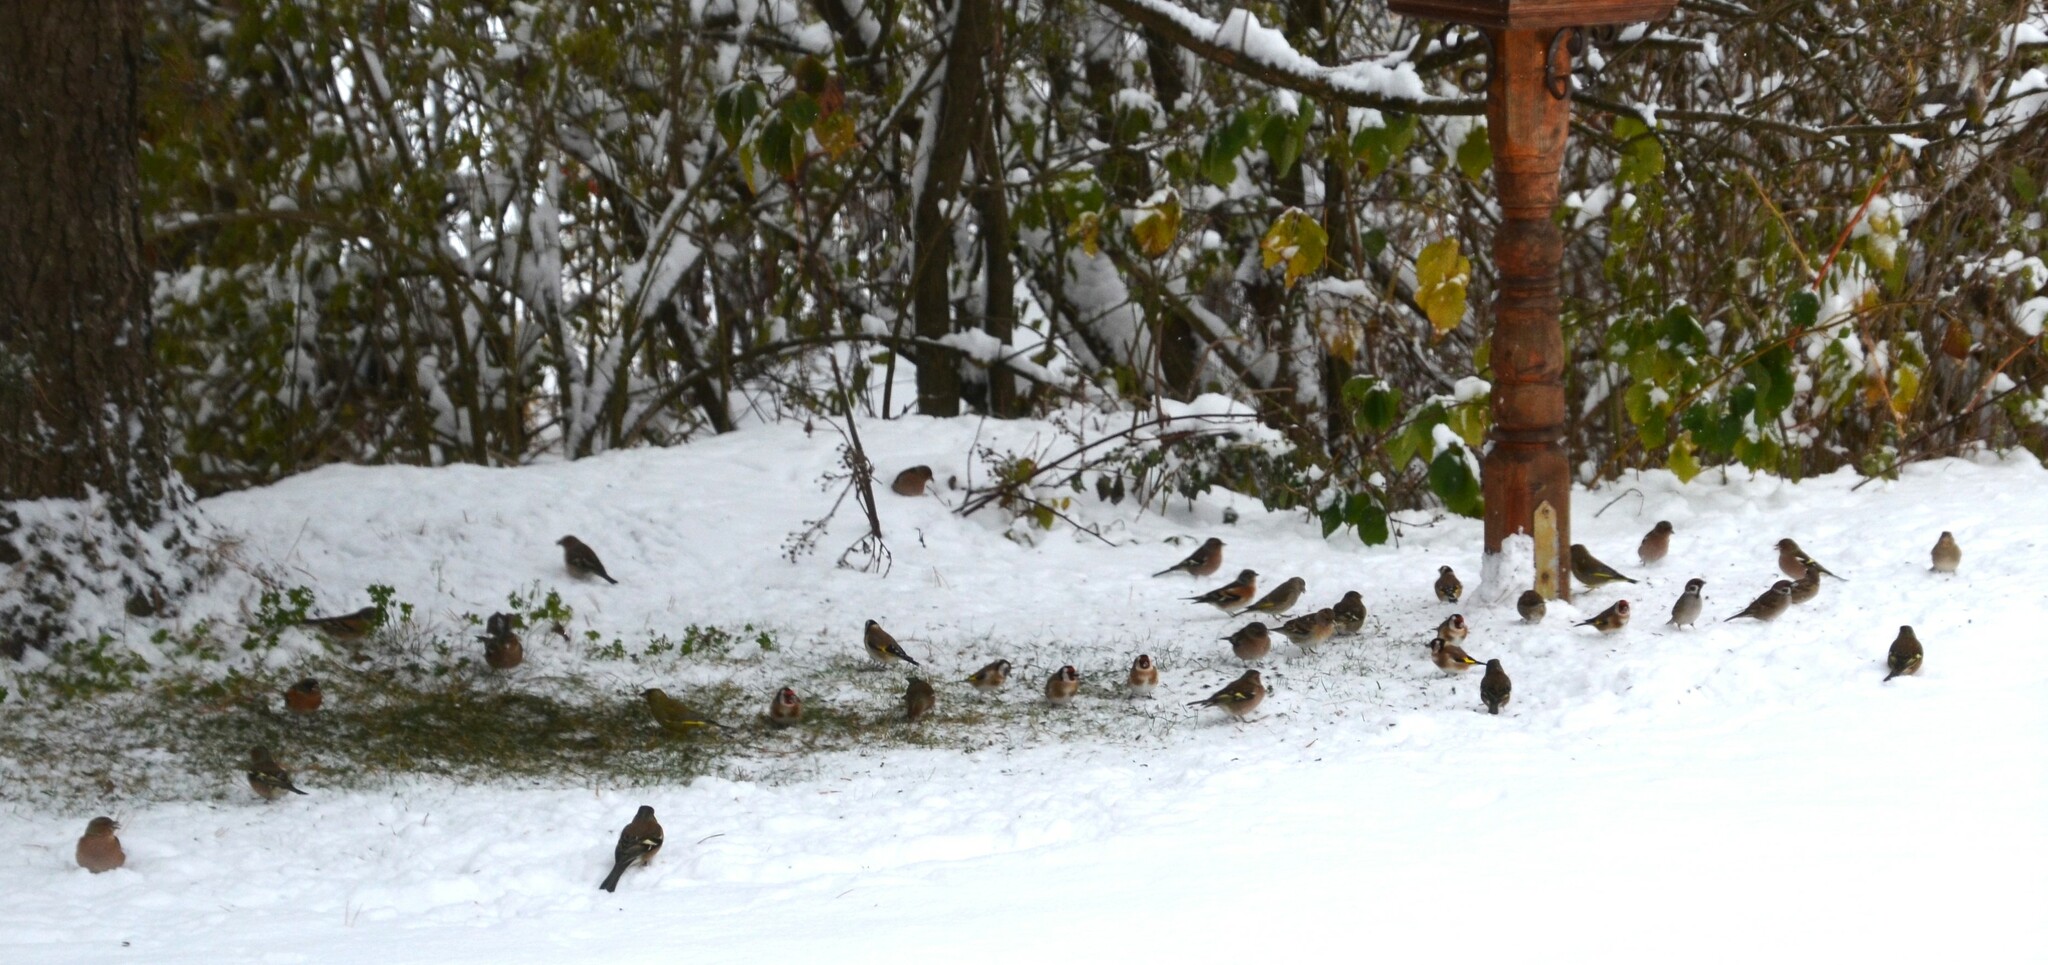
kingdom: Animalia
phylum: Chordata
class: Aves
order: Passeriformes
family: Fringillidae
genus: Fringilla
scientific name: Fringilla coelebs
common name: Common chaffinch
